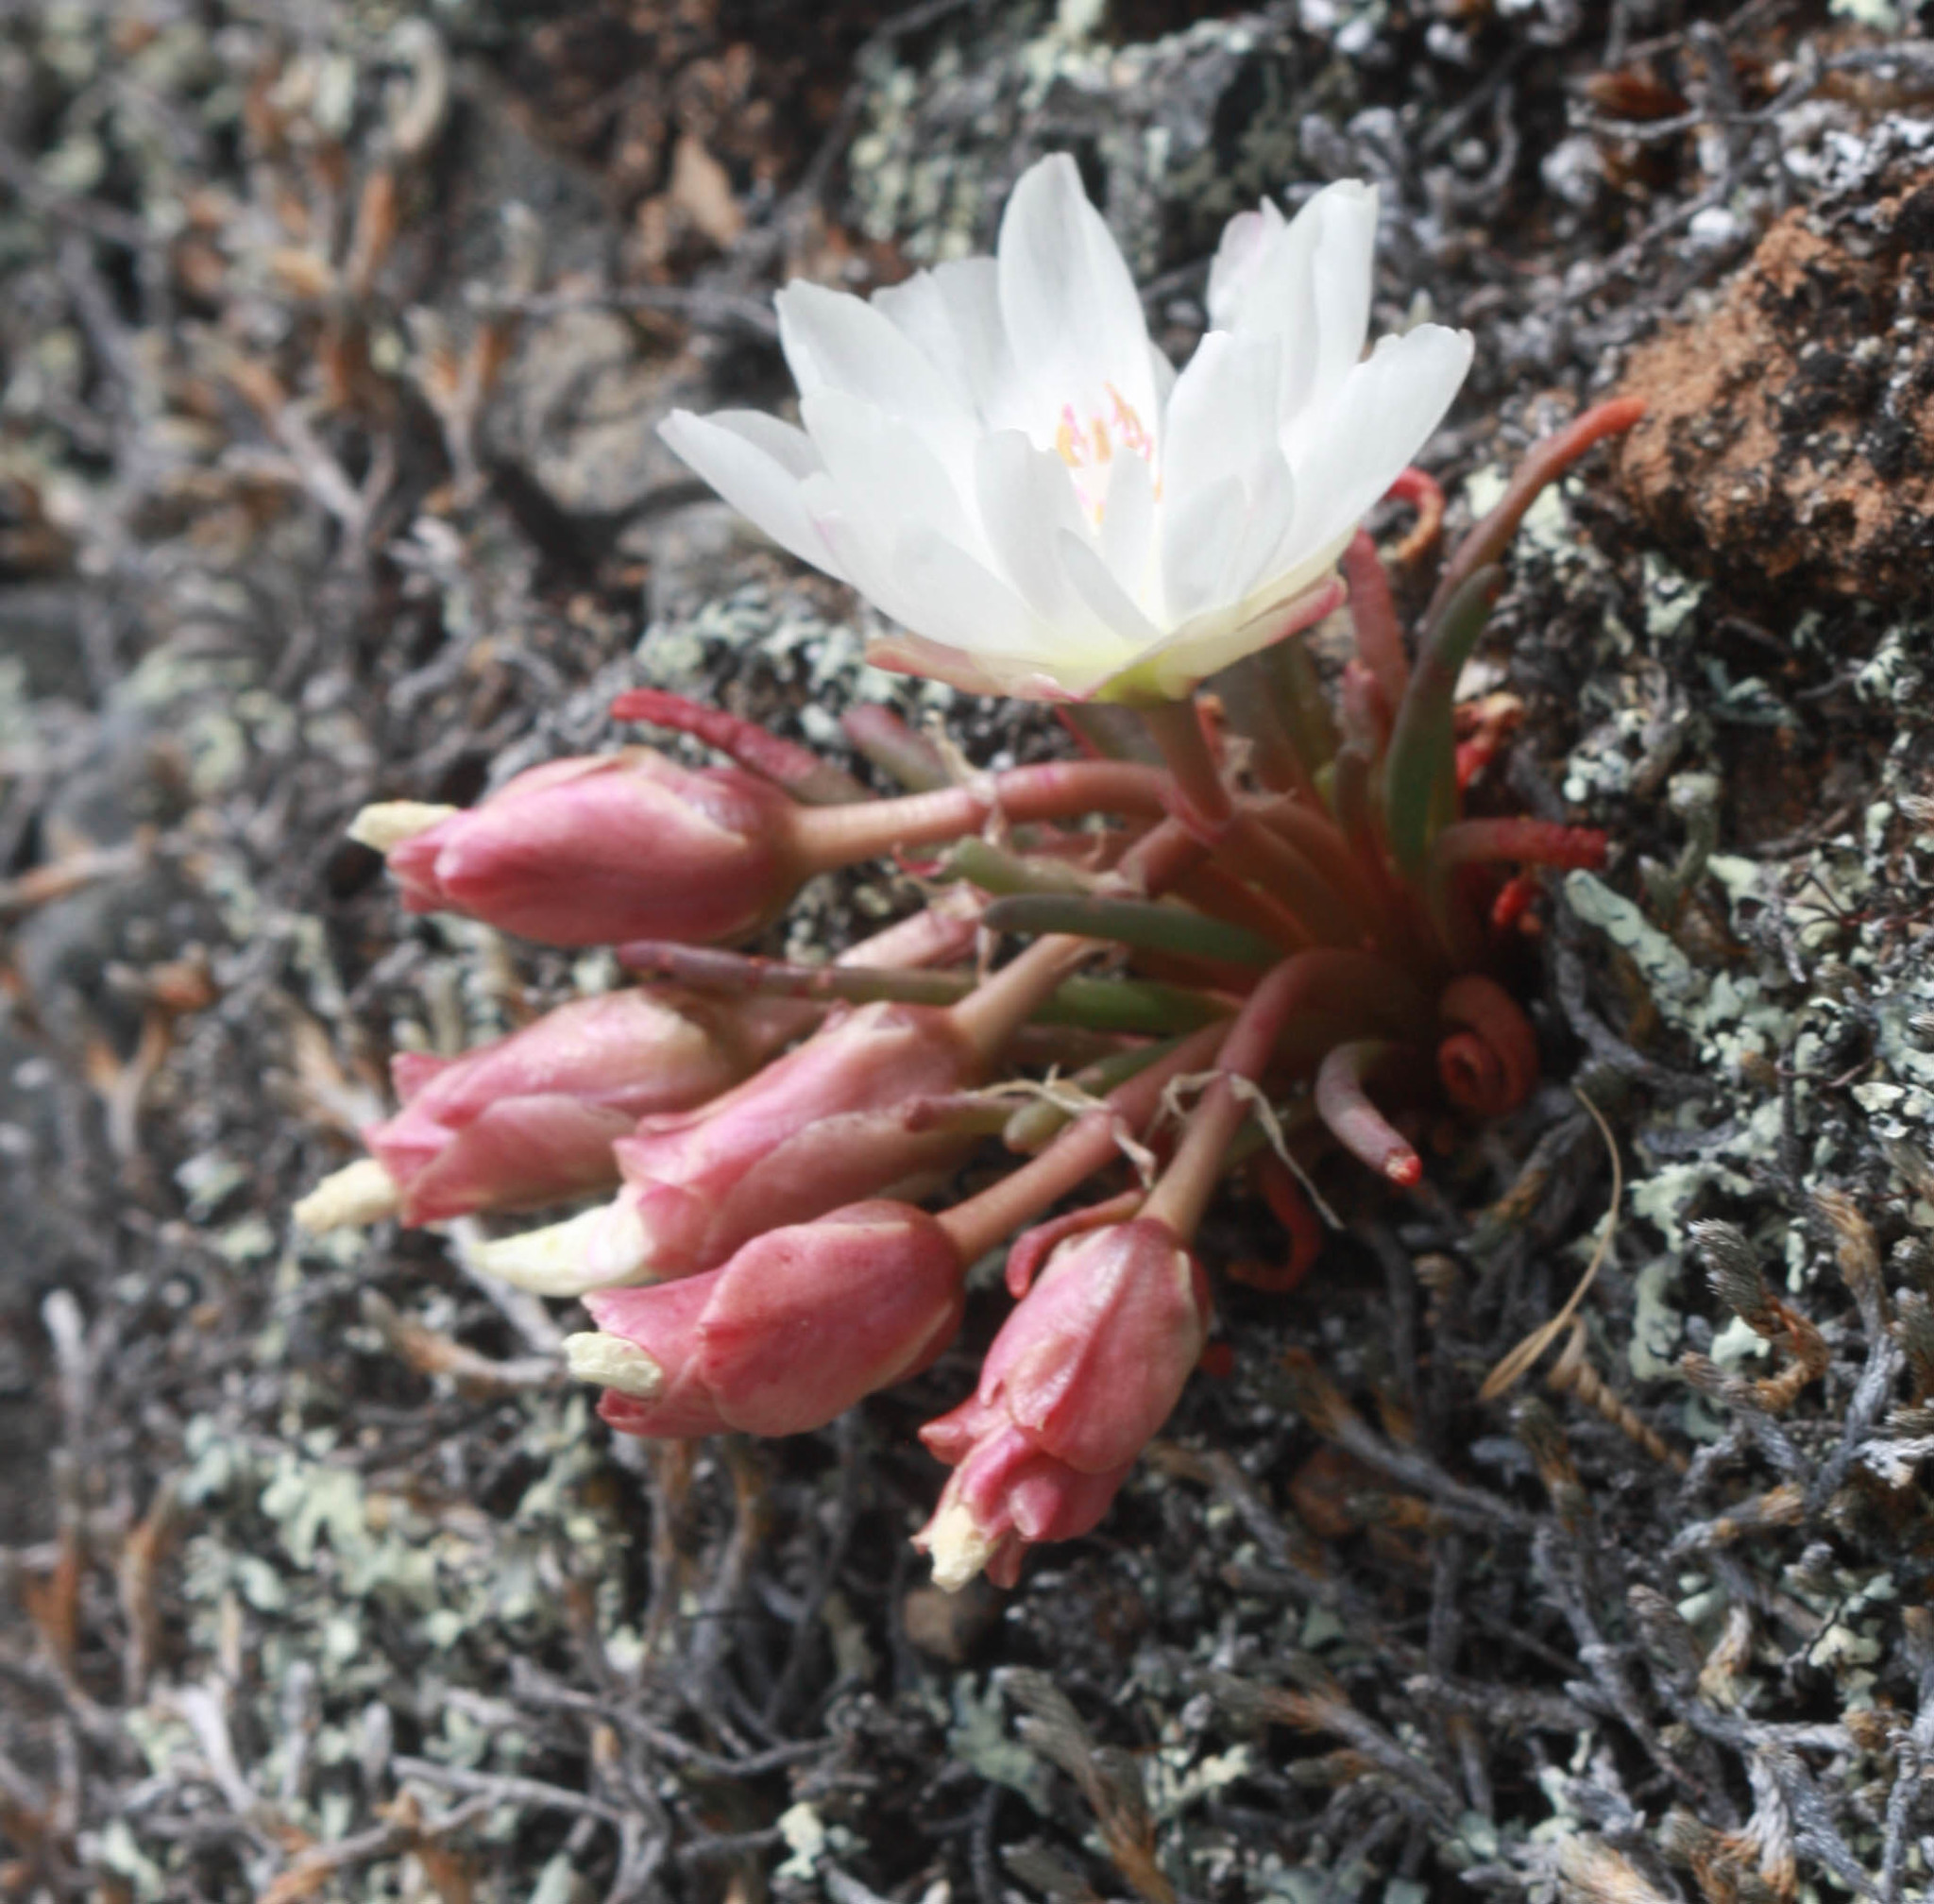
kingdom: Plantae
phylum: Tracheophyta
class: Magnoliopsida
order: Caryophyllales
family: Montiaceae
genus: Lewisia
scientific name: Lewisia rediviva
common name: Bitter-root
